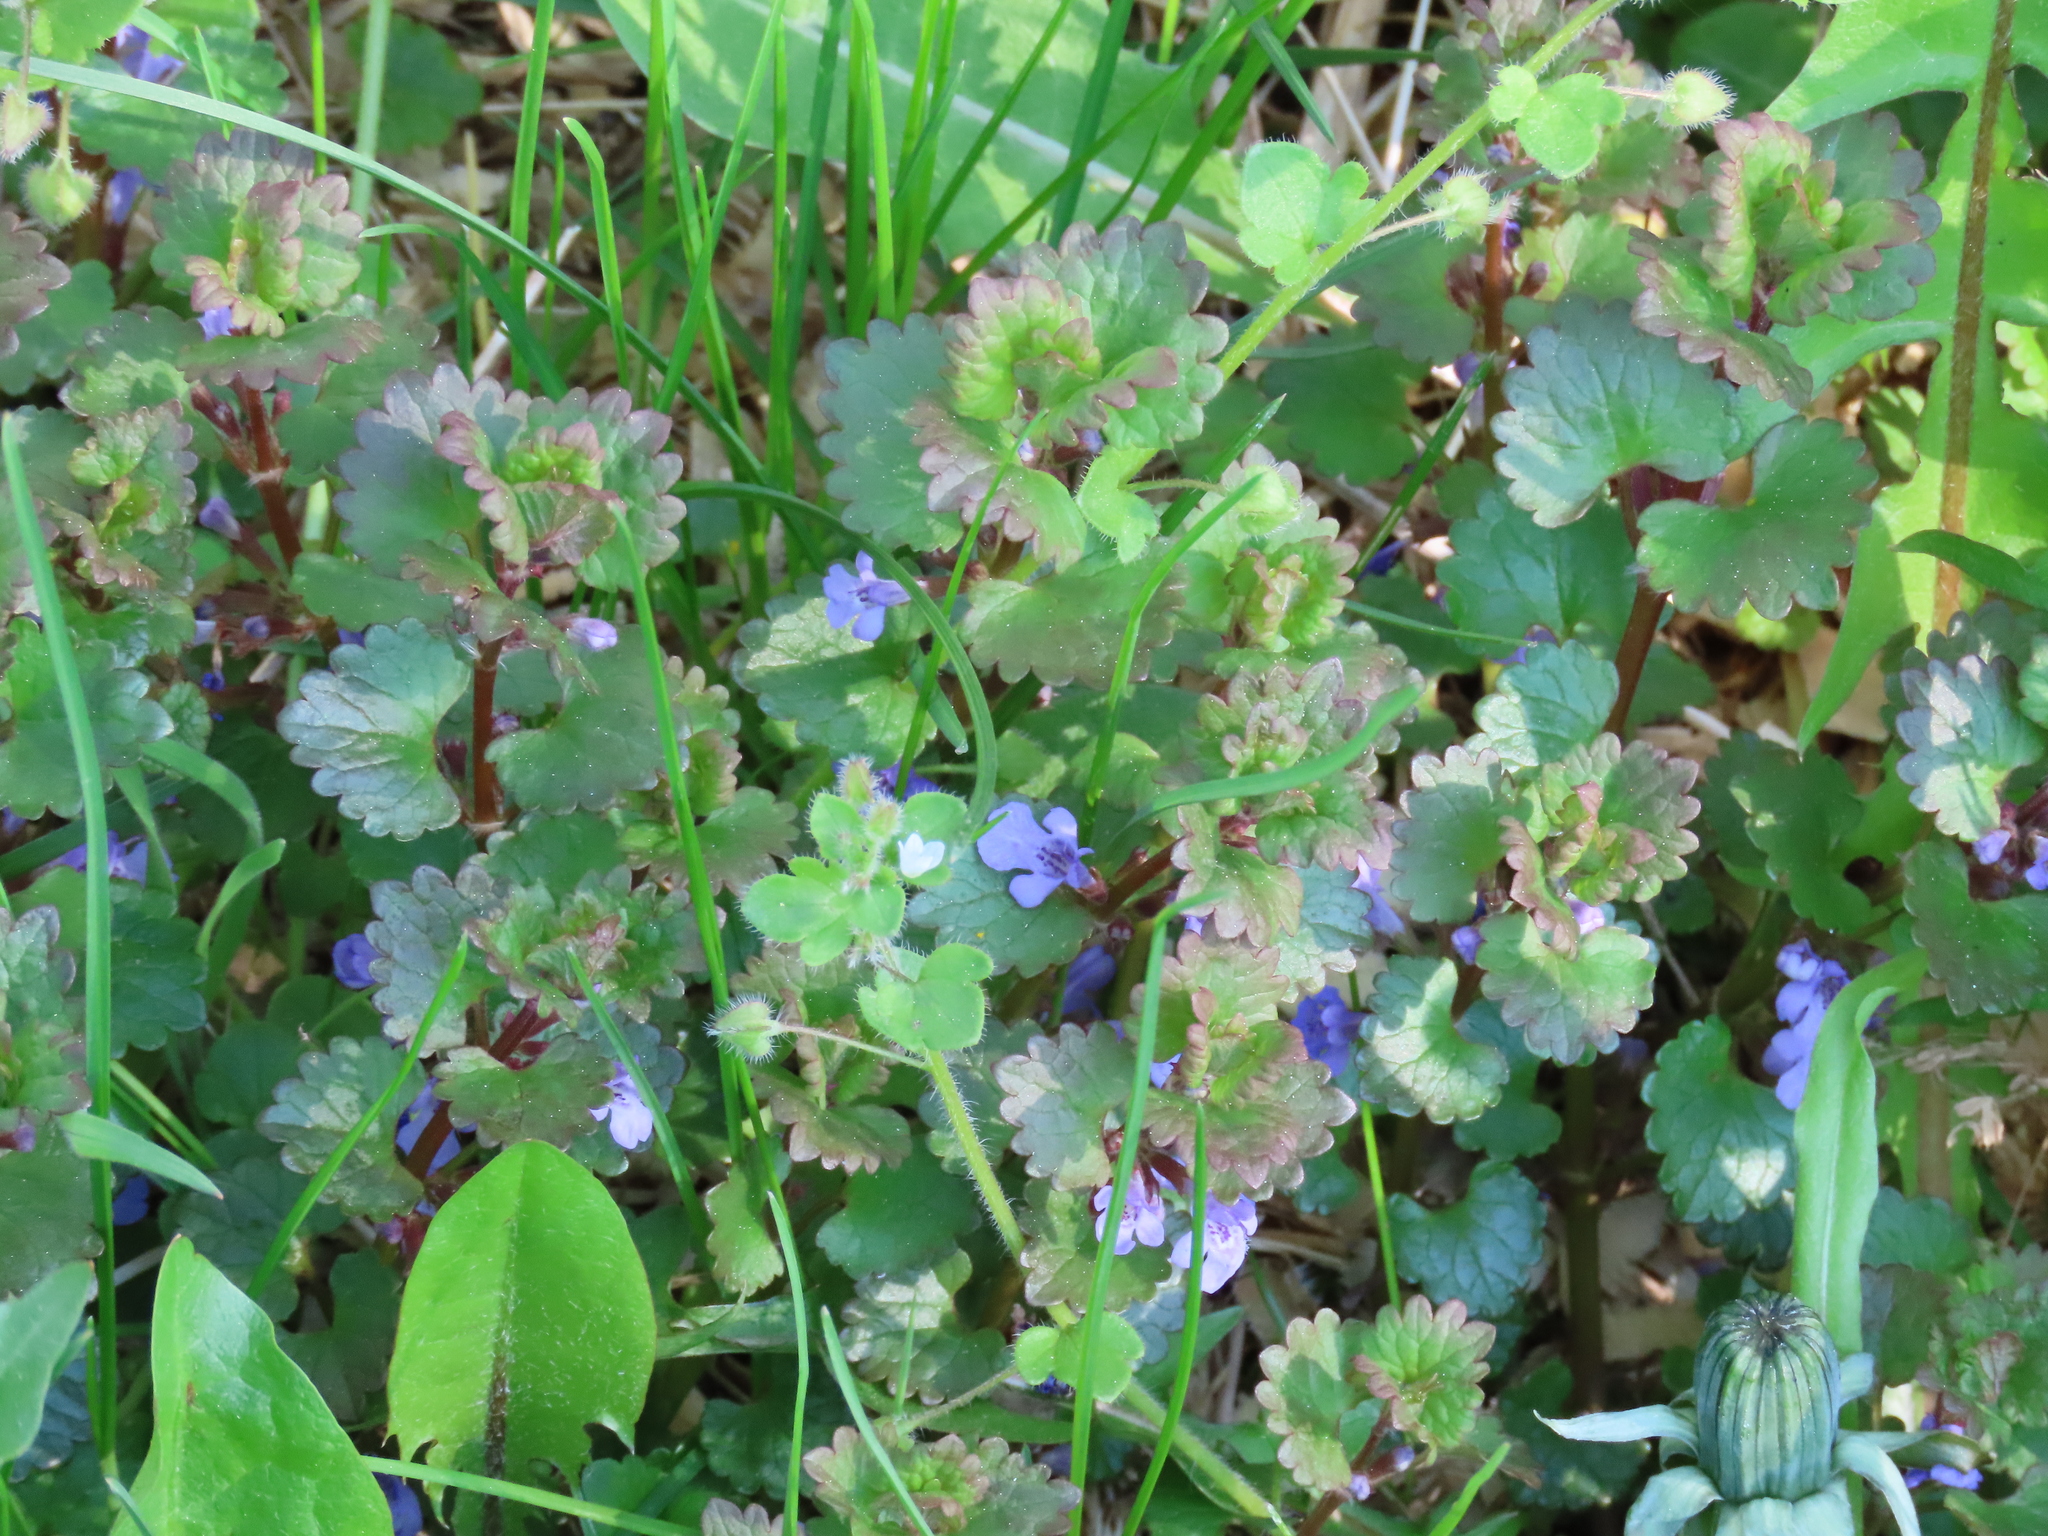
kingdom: Plantae
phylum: Tracheophyta
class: Magnoliopsida
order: Lamiales
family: Lamiaceae
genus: Glechoma
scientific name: Glechoma hederacea
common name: Ground ivy
